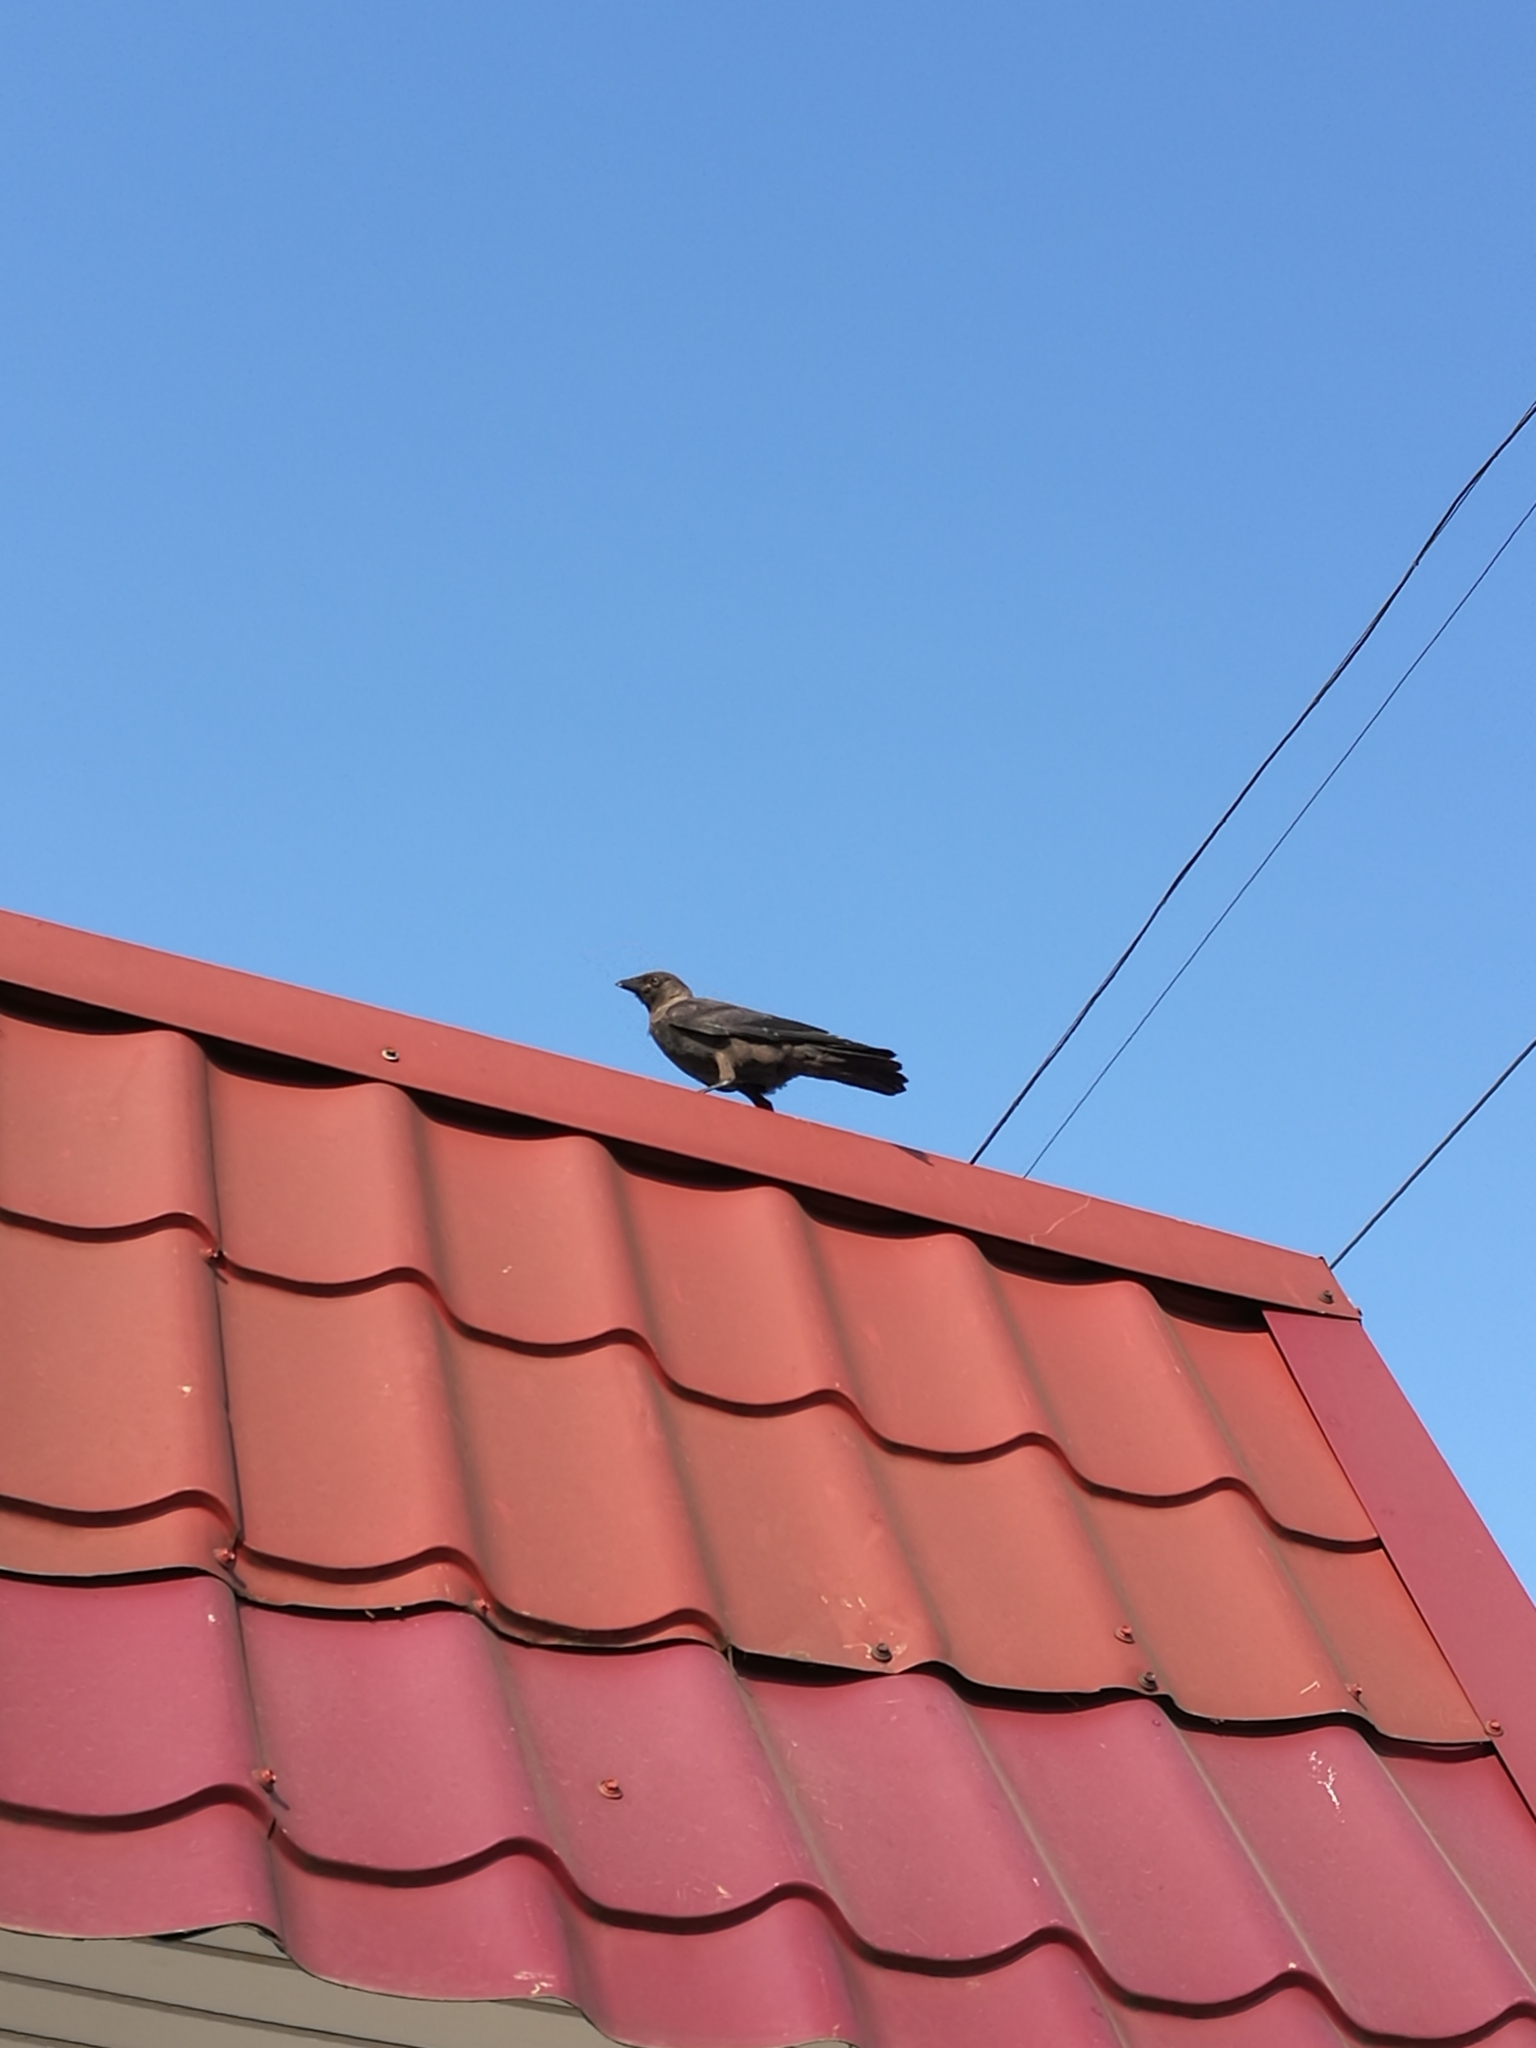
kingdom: Animalia
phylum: Chordata
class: Aves
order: Passeriformes
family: Corvidae
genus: Coloeus
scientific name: Coloeus monedula
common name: Western jackdaw
